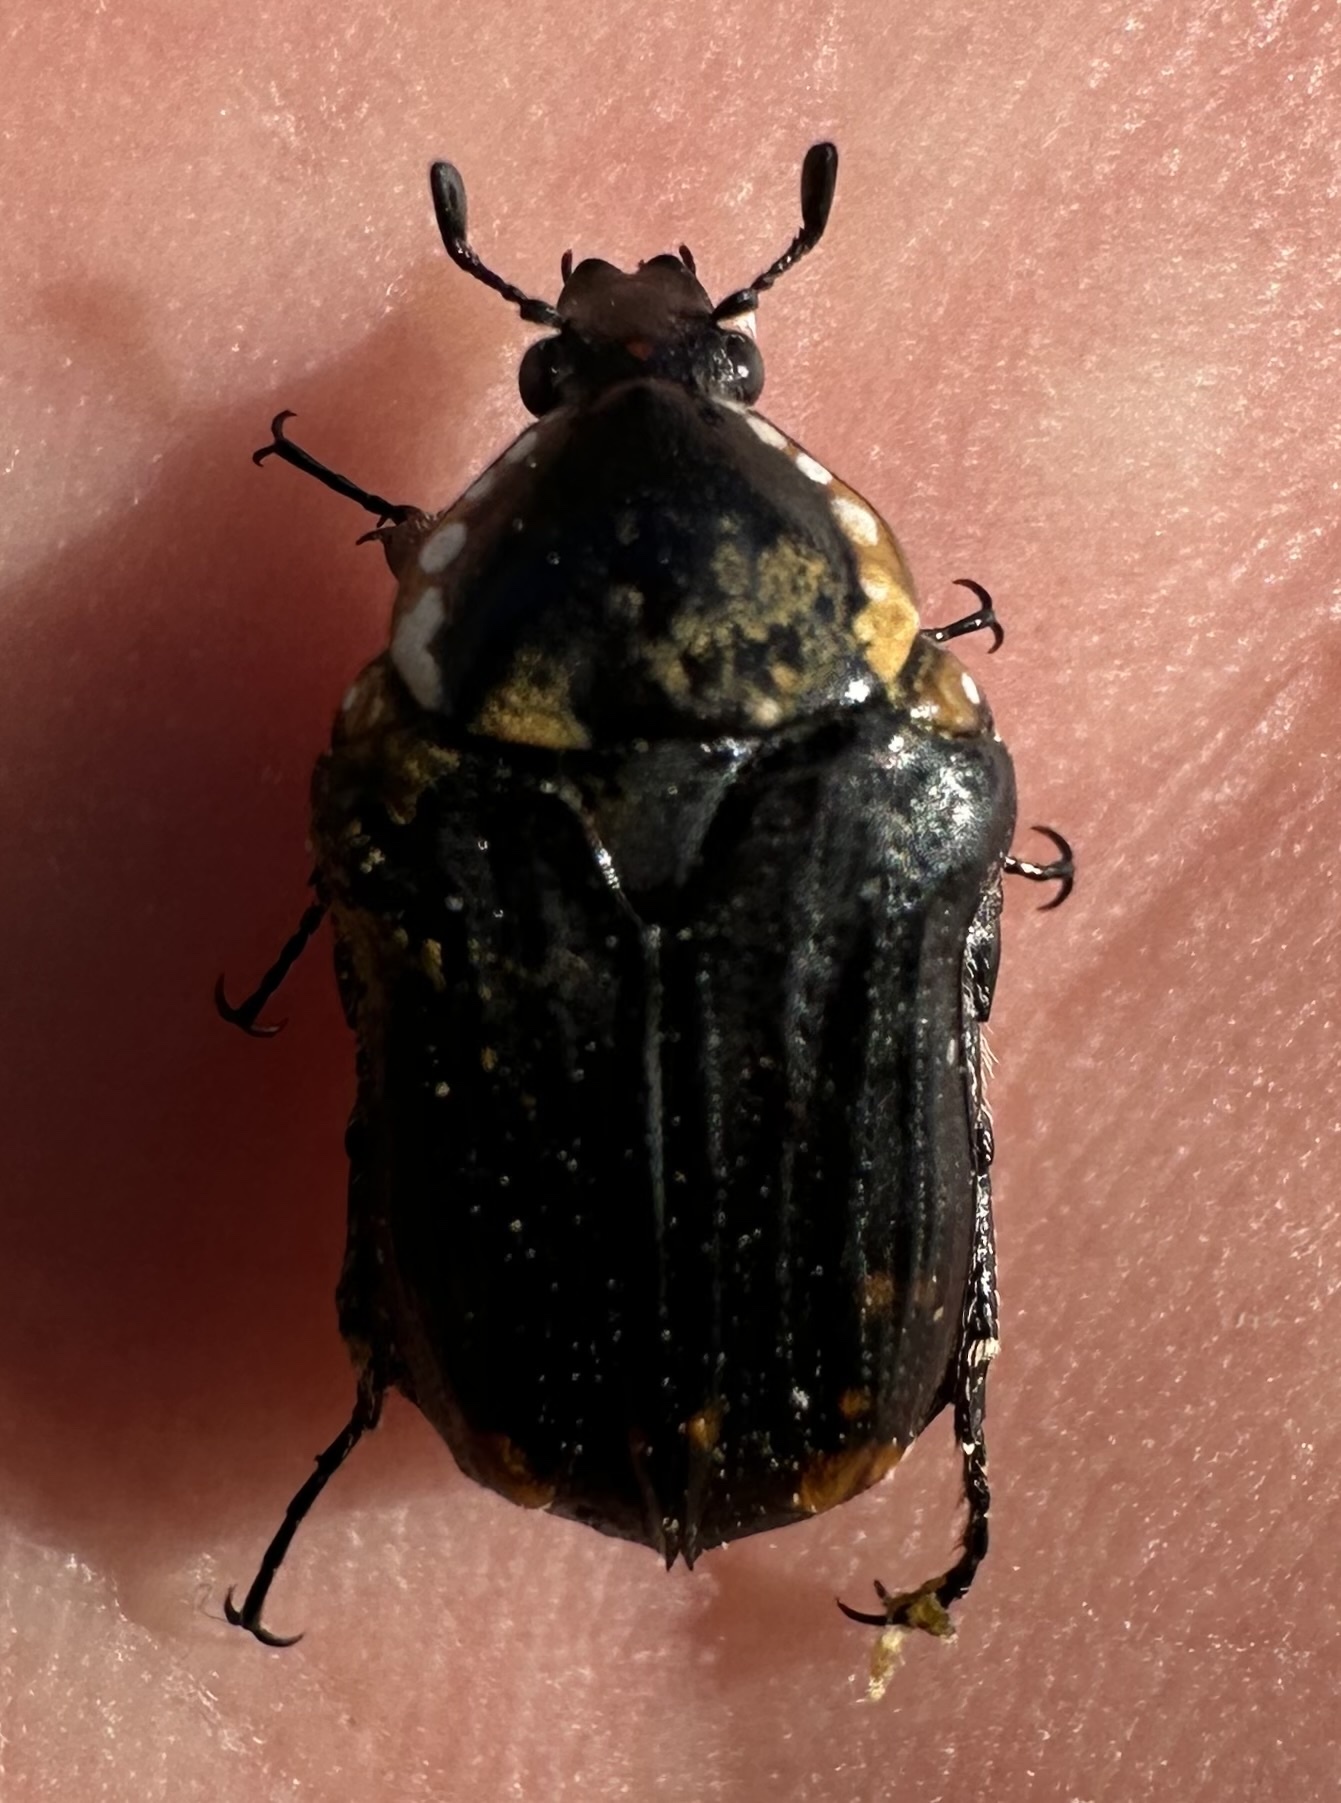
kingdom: Animalia
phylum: Arthropoda
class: Insecta
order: Coleoptera
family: Scarabaeidae
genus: Dolichostethus
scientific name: Dolichostethus levis
